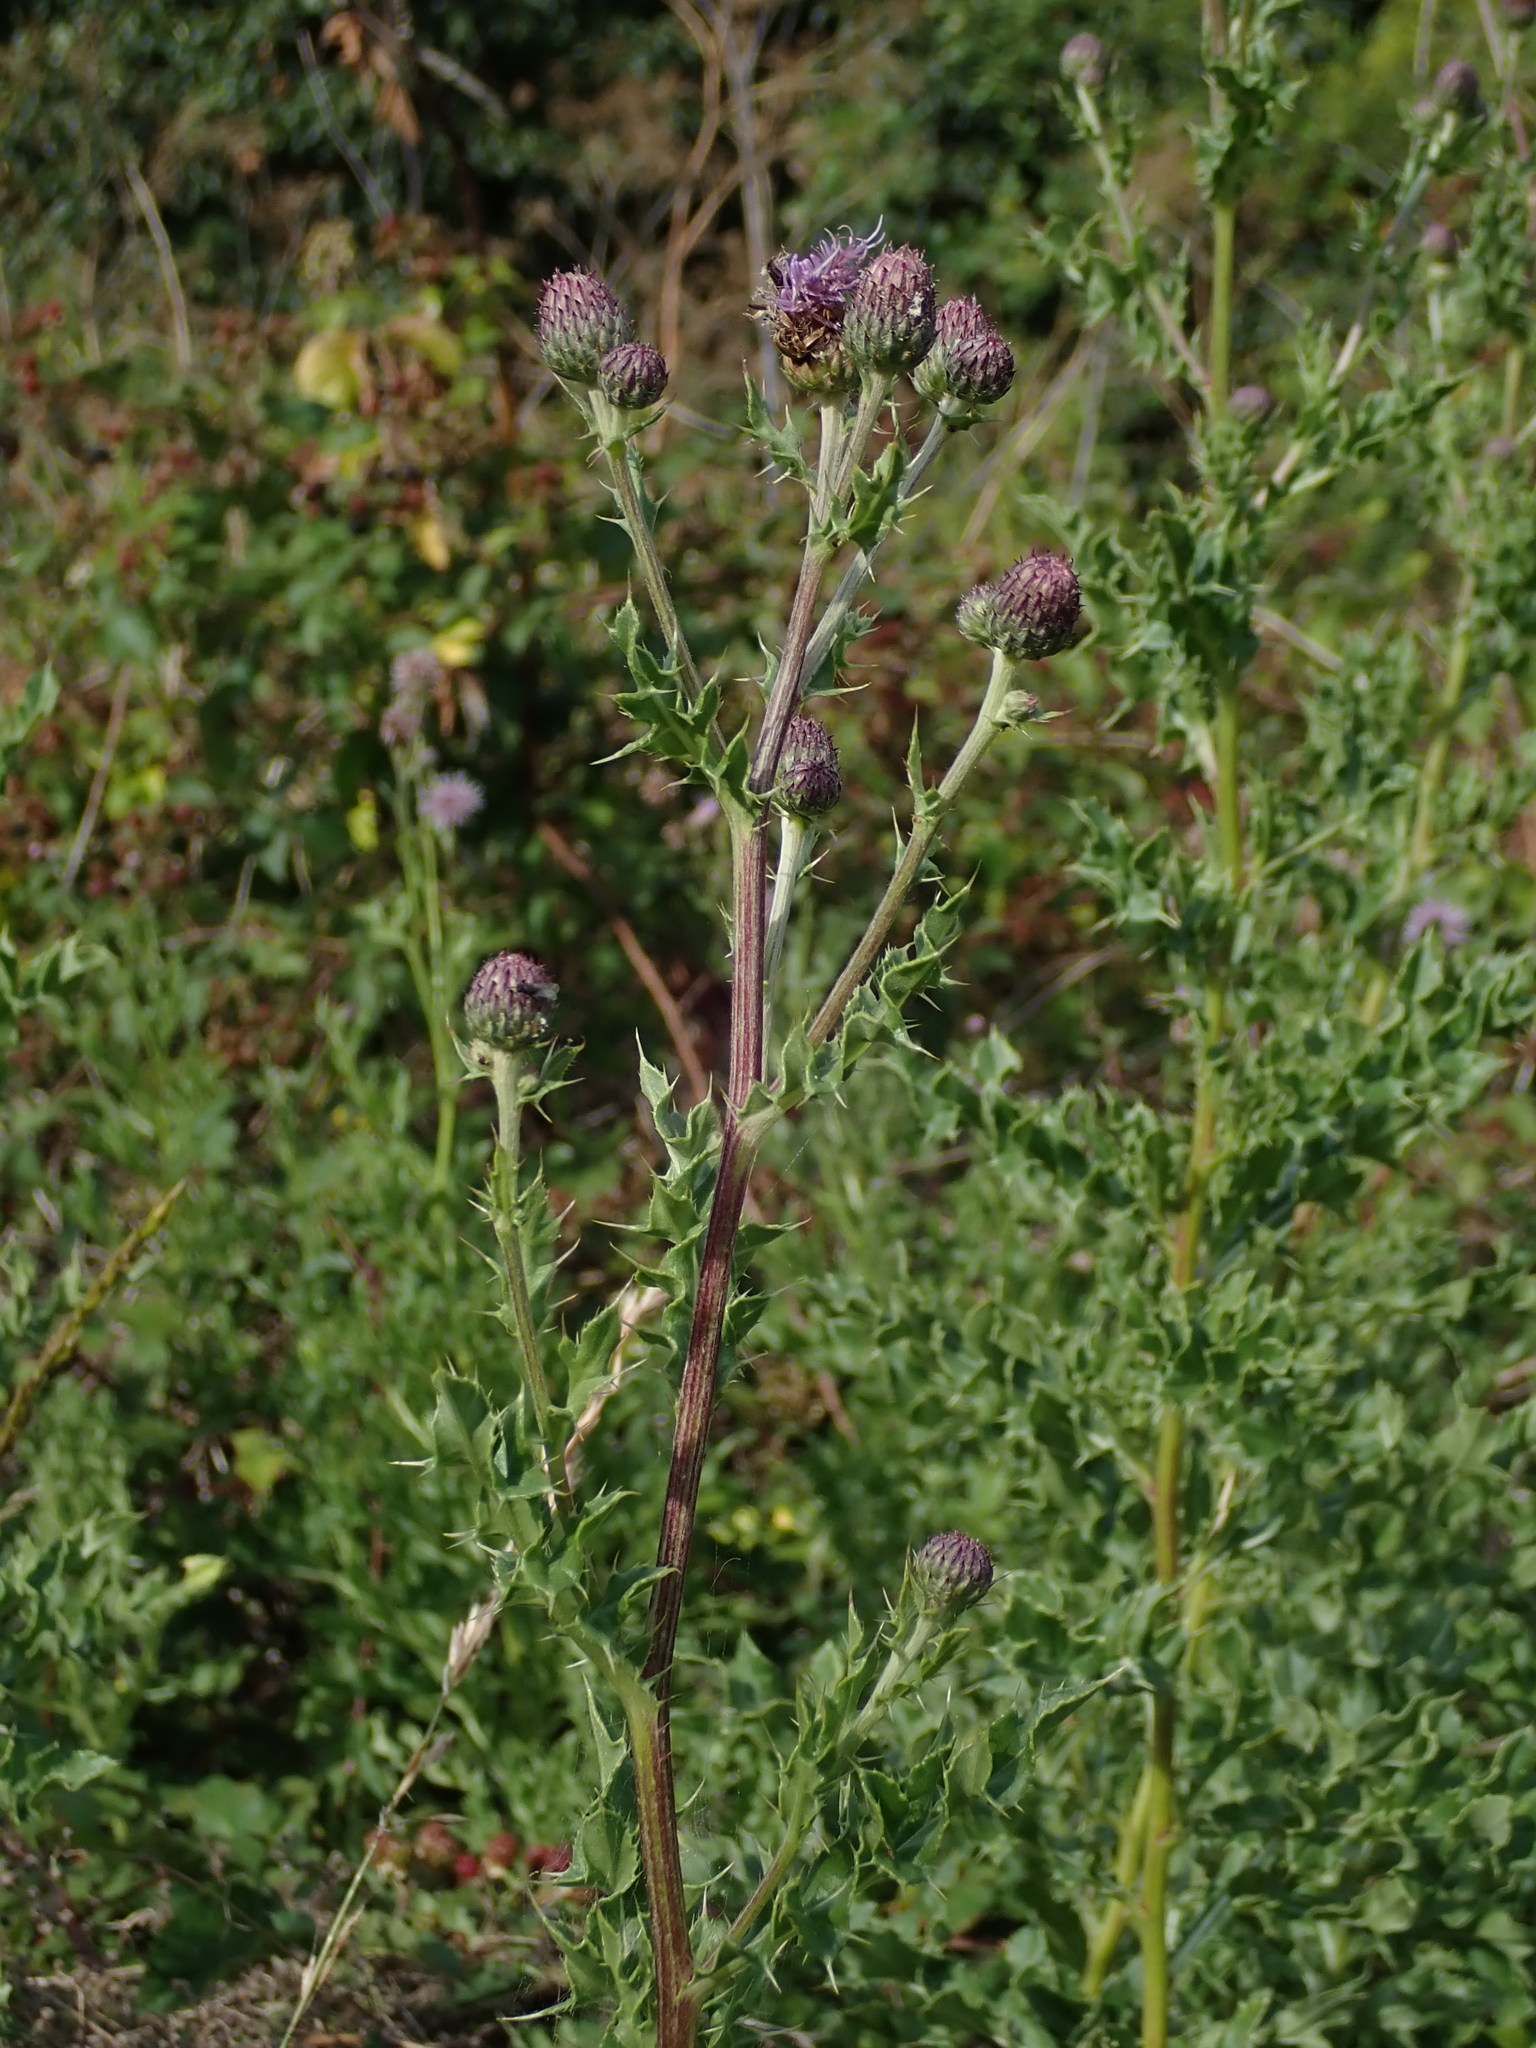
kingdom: Plantae
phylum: Tracheophyta
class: Magnoliopsida
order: Asterales
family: Asteraceae
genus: Cirsium
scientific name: Cirsium arvense
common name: Creeping thistle
